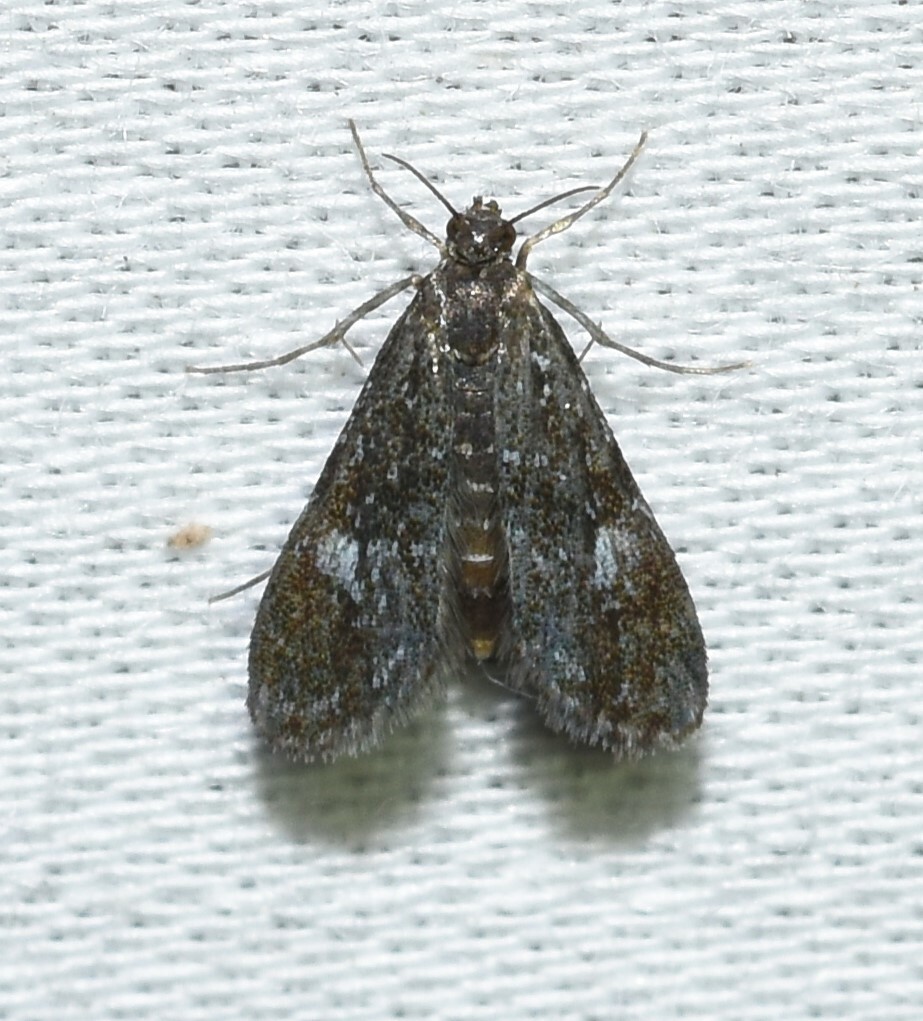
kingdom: Animalia
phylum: Arthropoda
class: Insecta
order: Lepidoptera
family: Crambidae
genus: Elophila
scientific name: Elophila tinealis
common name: Black duckweed moth
